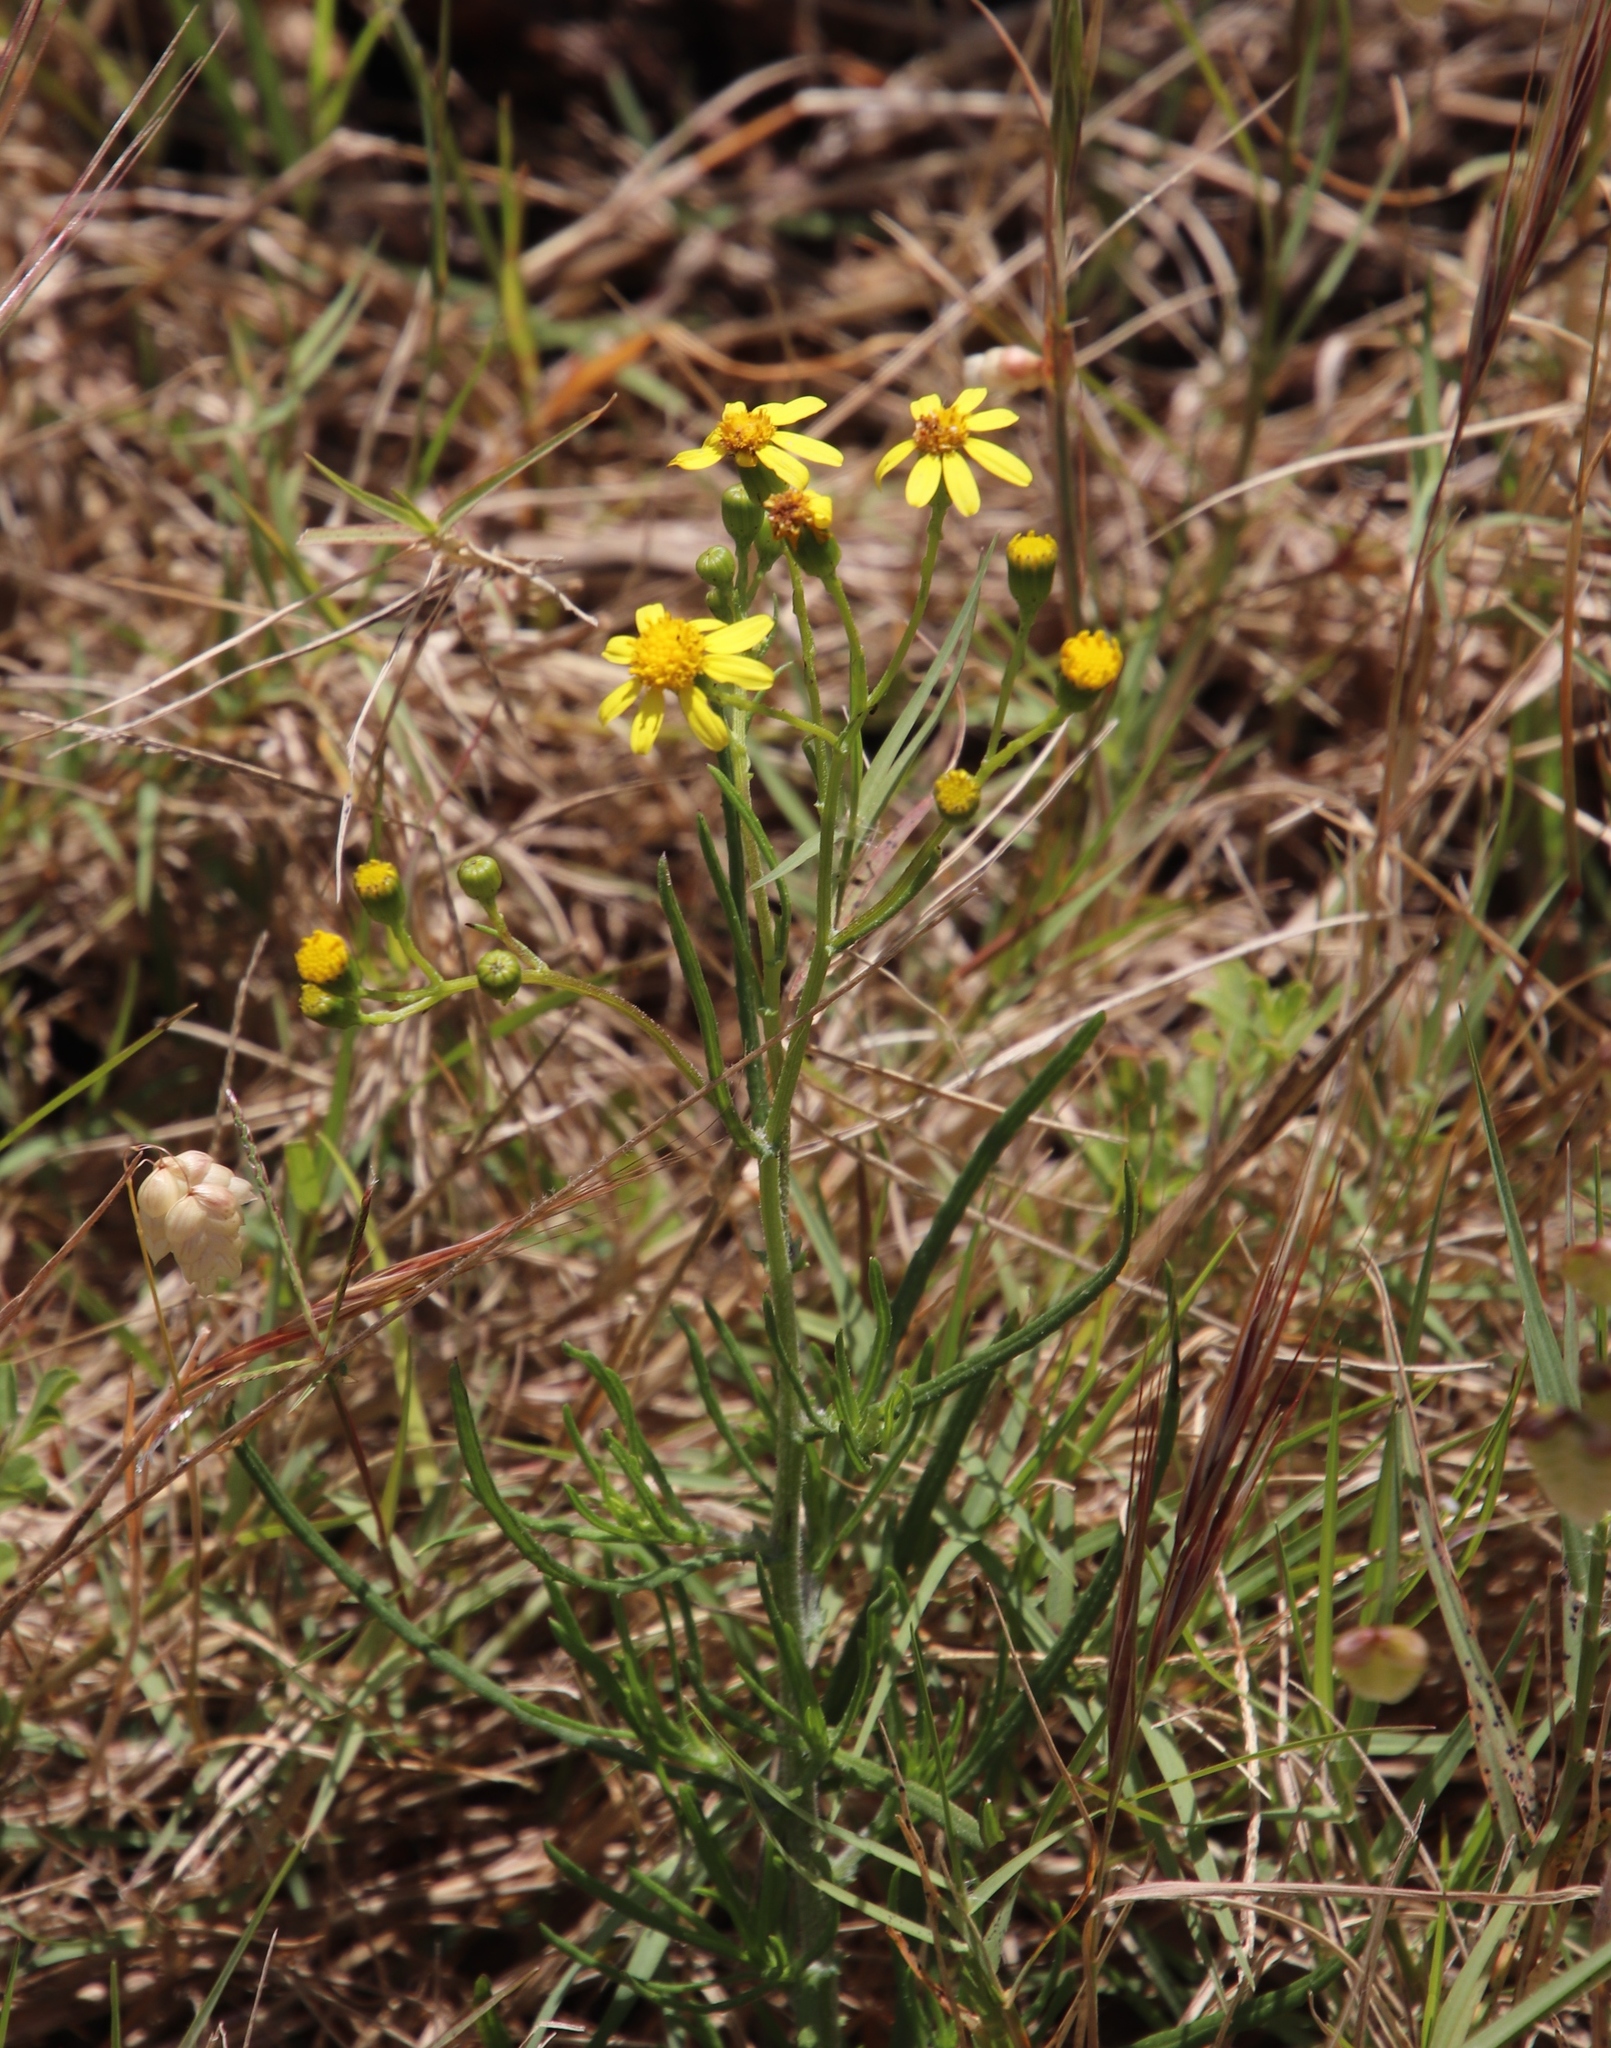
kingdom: Plantae
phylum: Tracheophyta
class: Magnoliopsida
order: Asterales
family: Asteraceae
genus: Senecio
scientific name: Senecio burchellii
